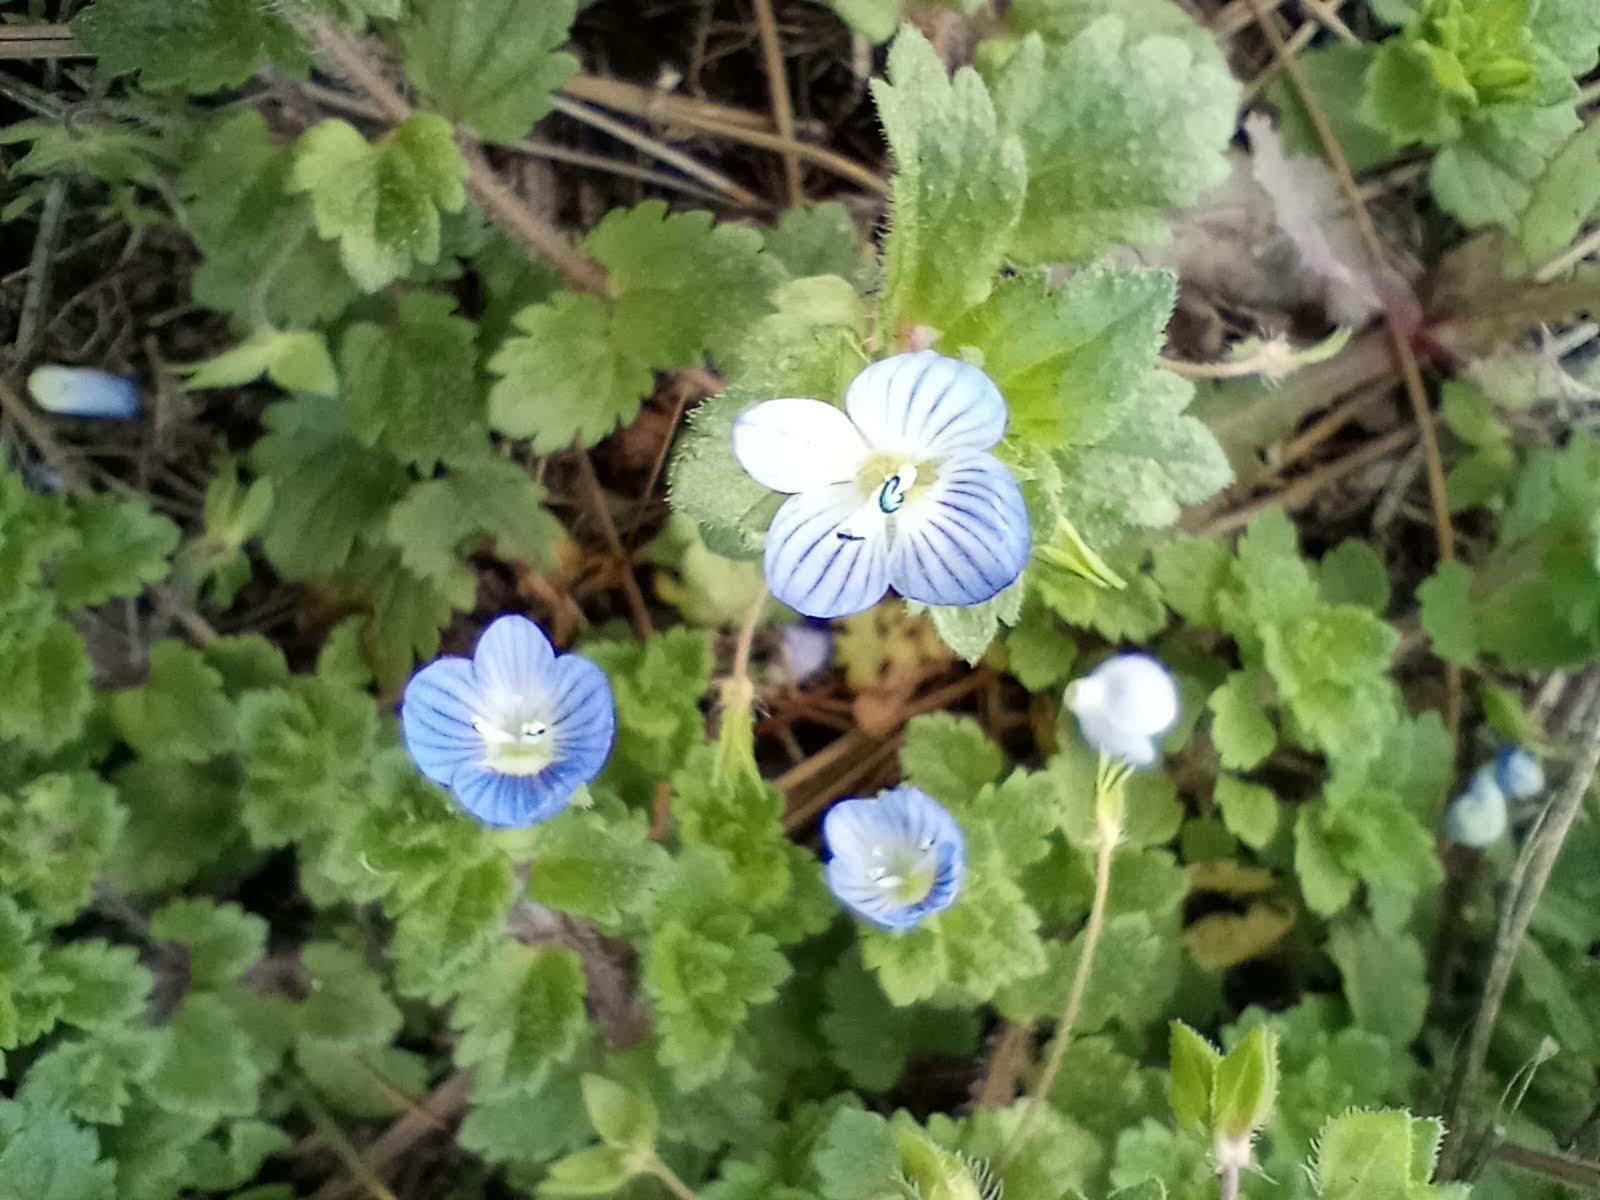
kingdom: Plantae
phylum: Tracheophyta
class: Magnoliopsida
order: Lamiales
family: Plantaginaceae
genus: Veronica
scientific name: Veronica persica
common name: Common field-speedwell
